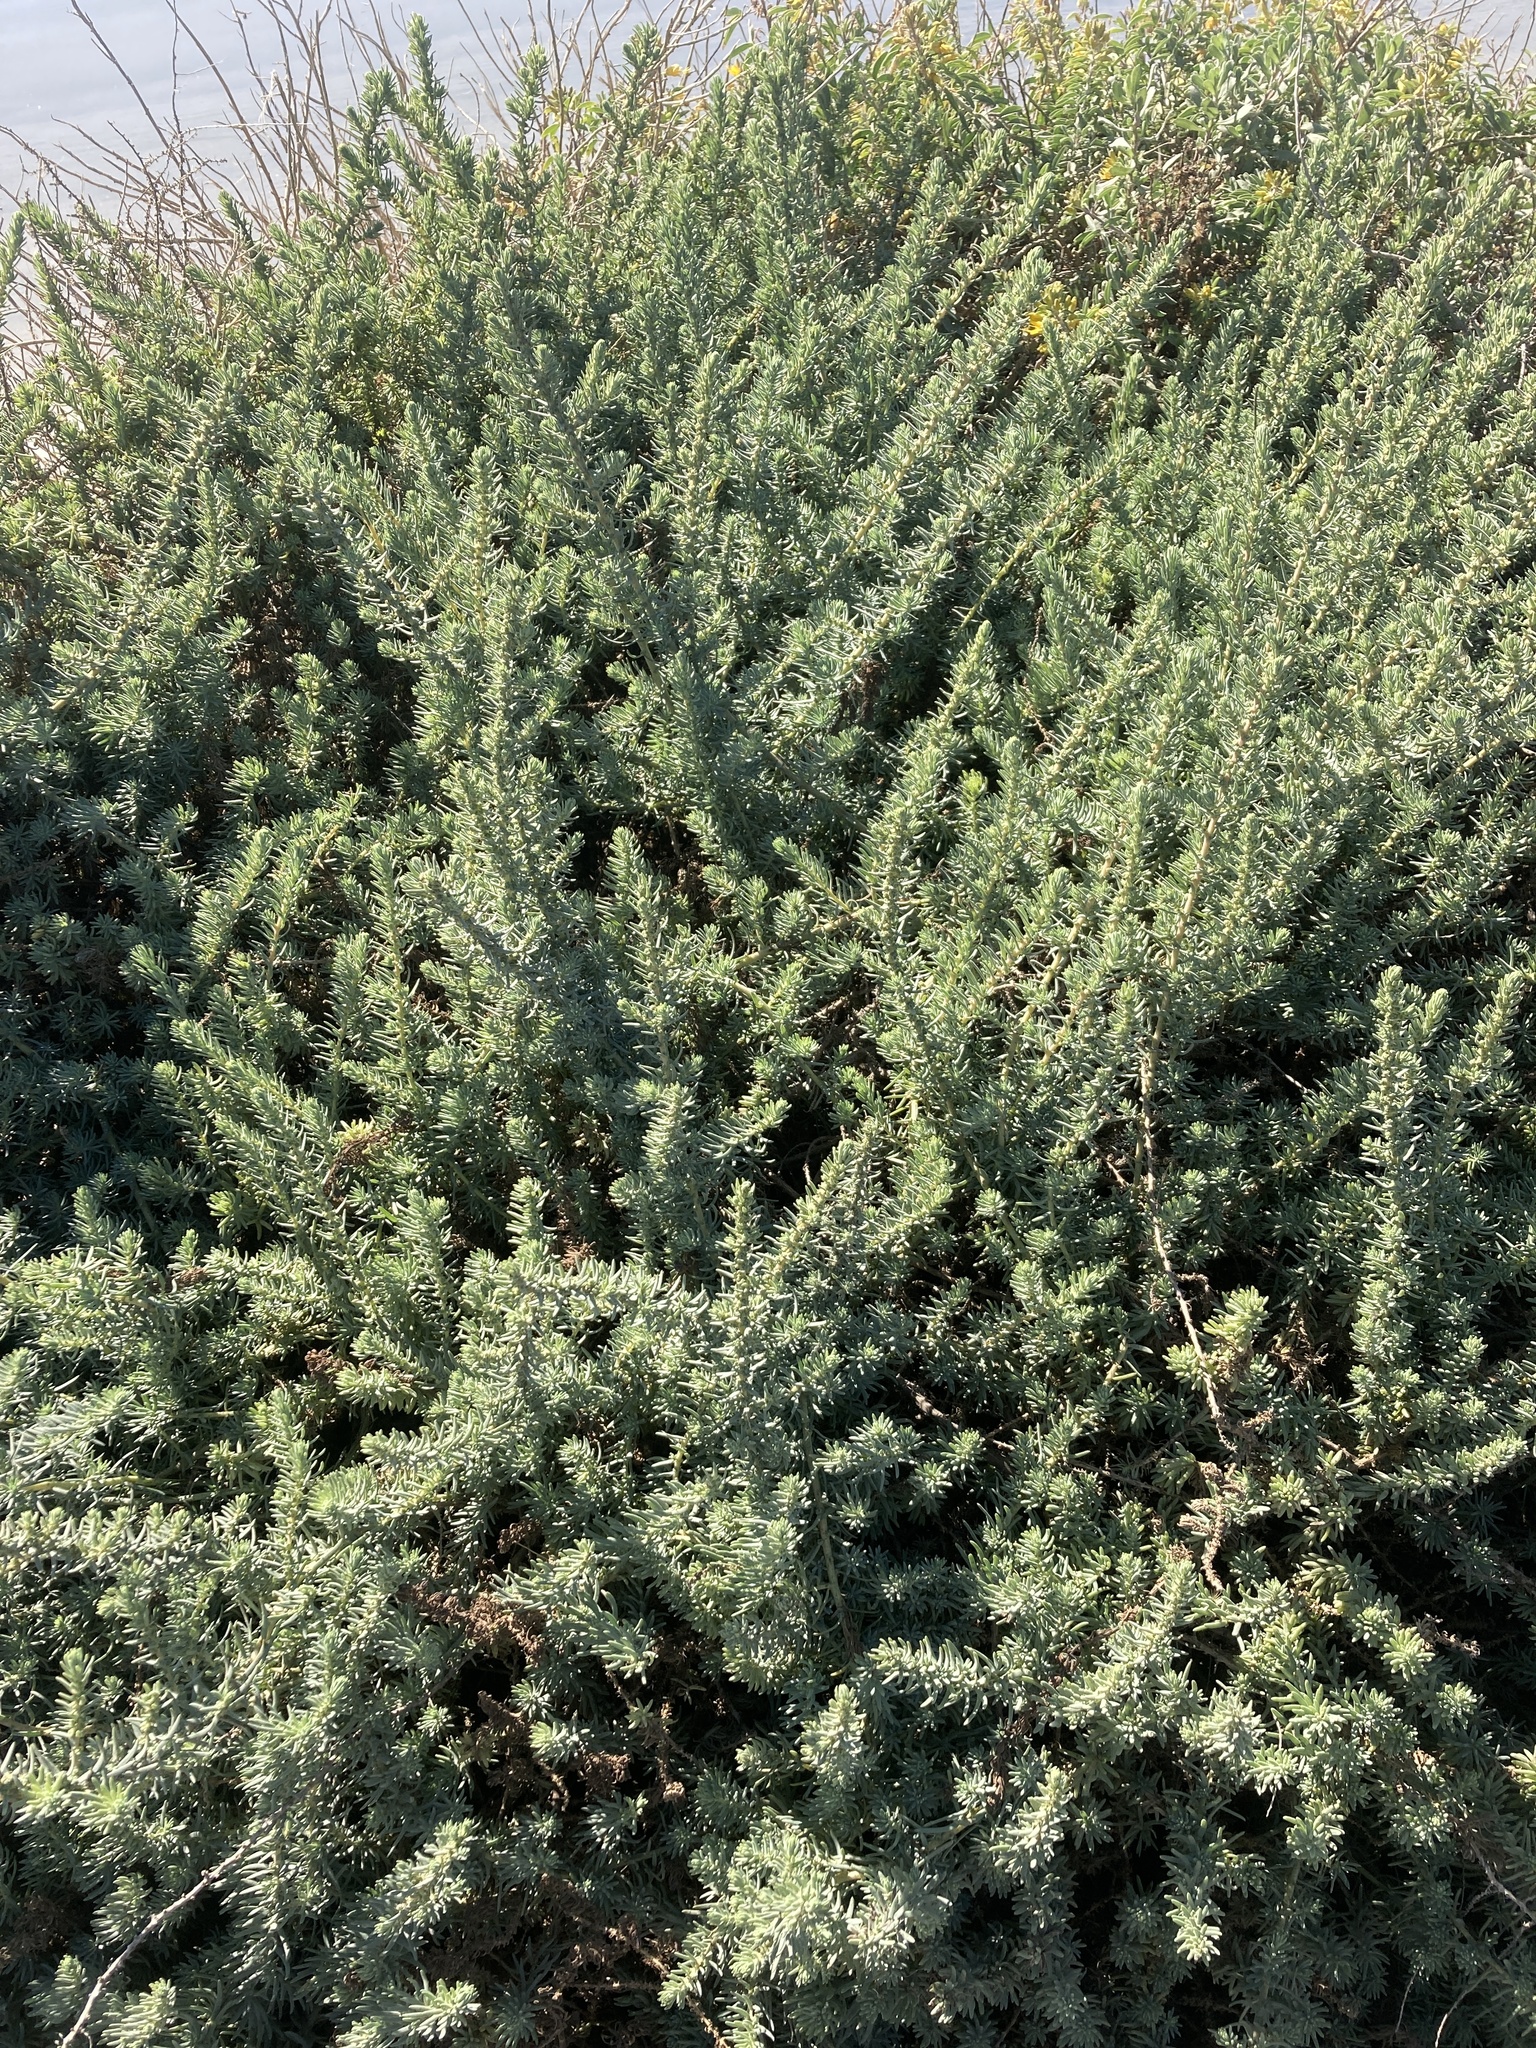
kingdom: Plantae
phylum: Tracheophyta
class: Magnoliopsida
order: Caryophyllales
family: Amaranthaceae
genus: Suaeda
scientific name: Suaeda taxifolia
